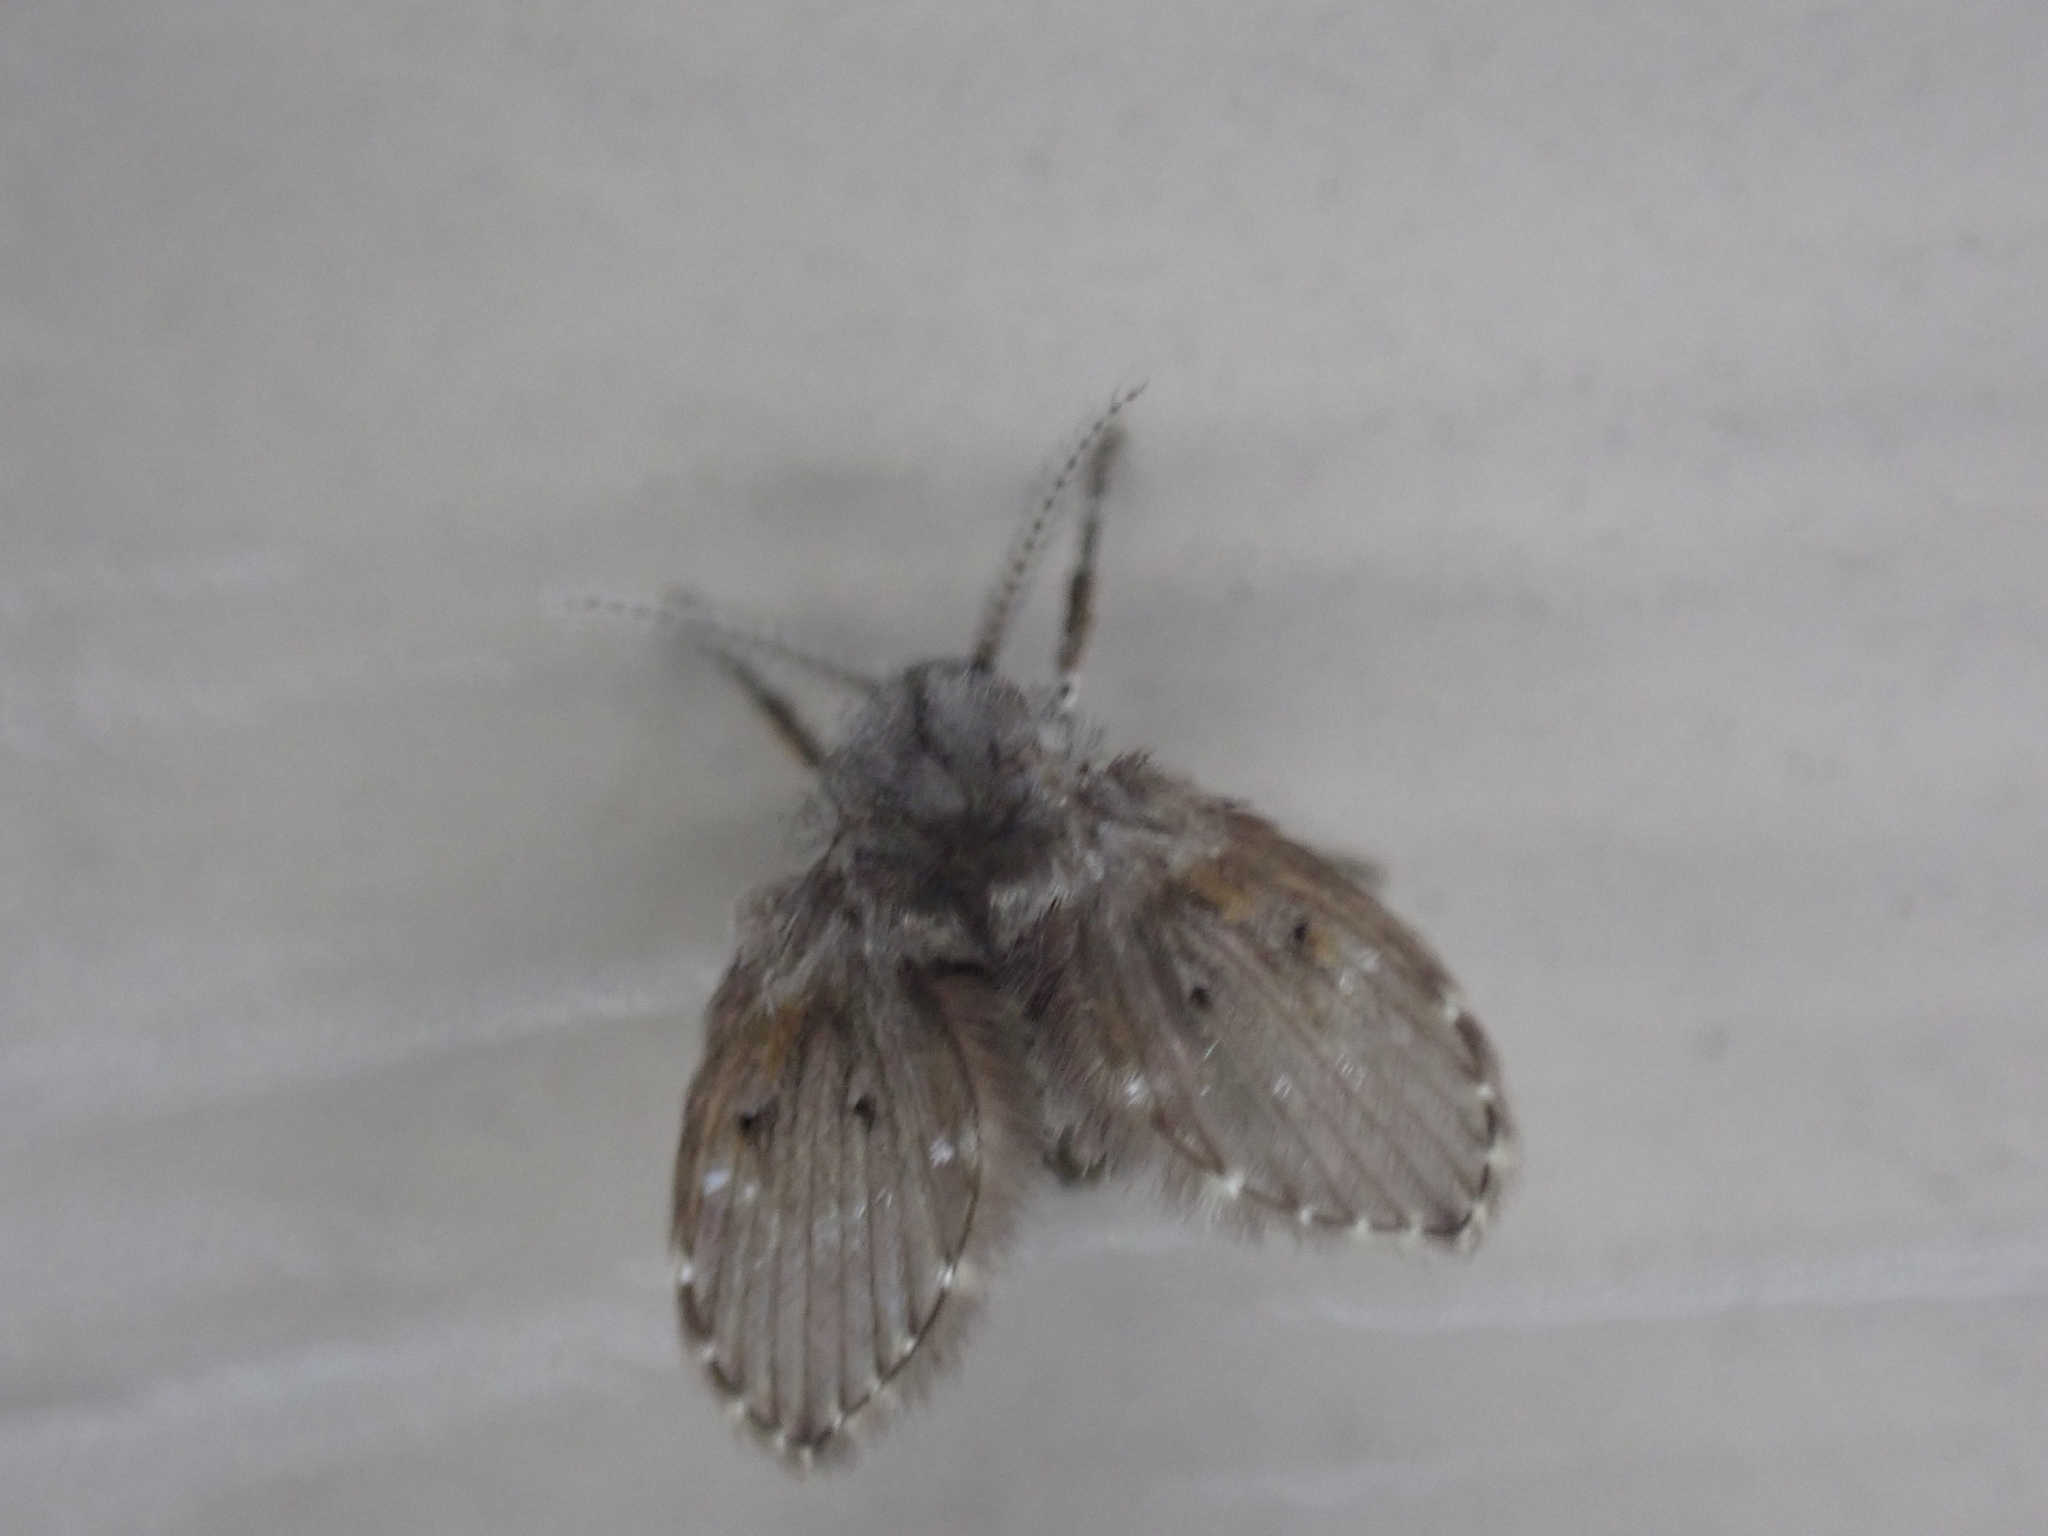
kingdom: Animalia
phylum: Arthropoda
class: Insecta
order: Diptera
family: Psychodidae
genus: Clogmia
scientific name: Clogmia albipunctatus
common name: White-spotted moth fly
